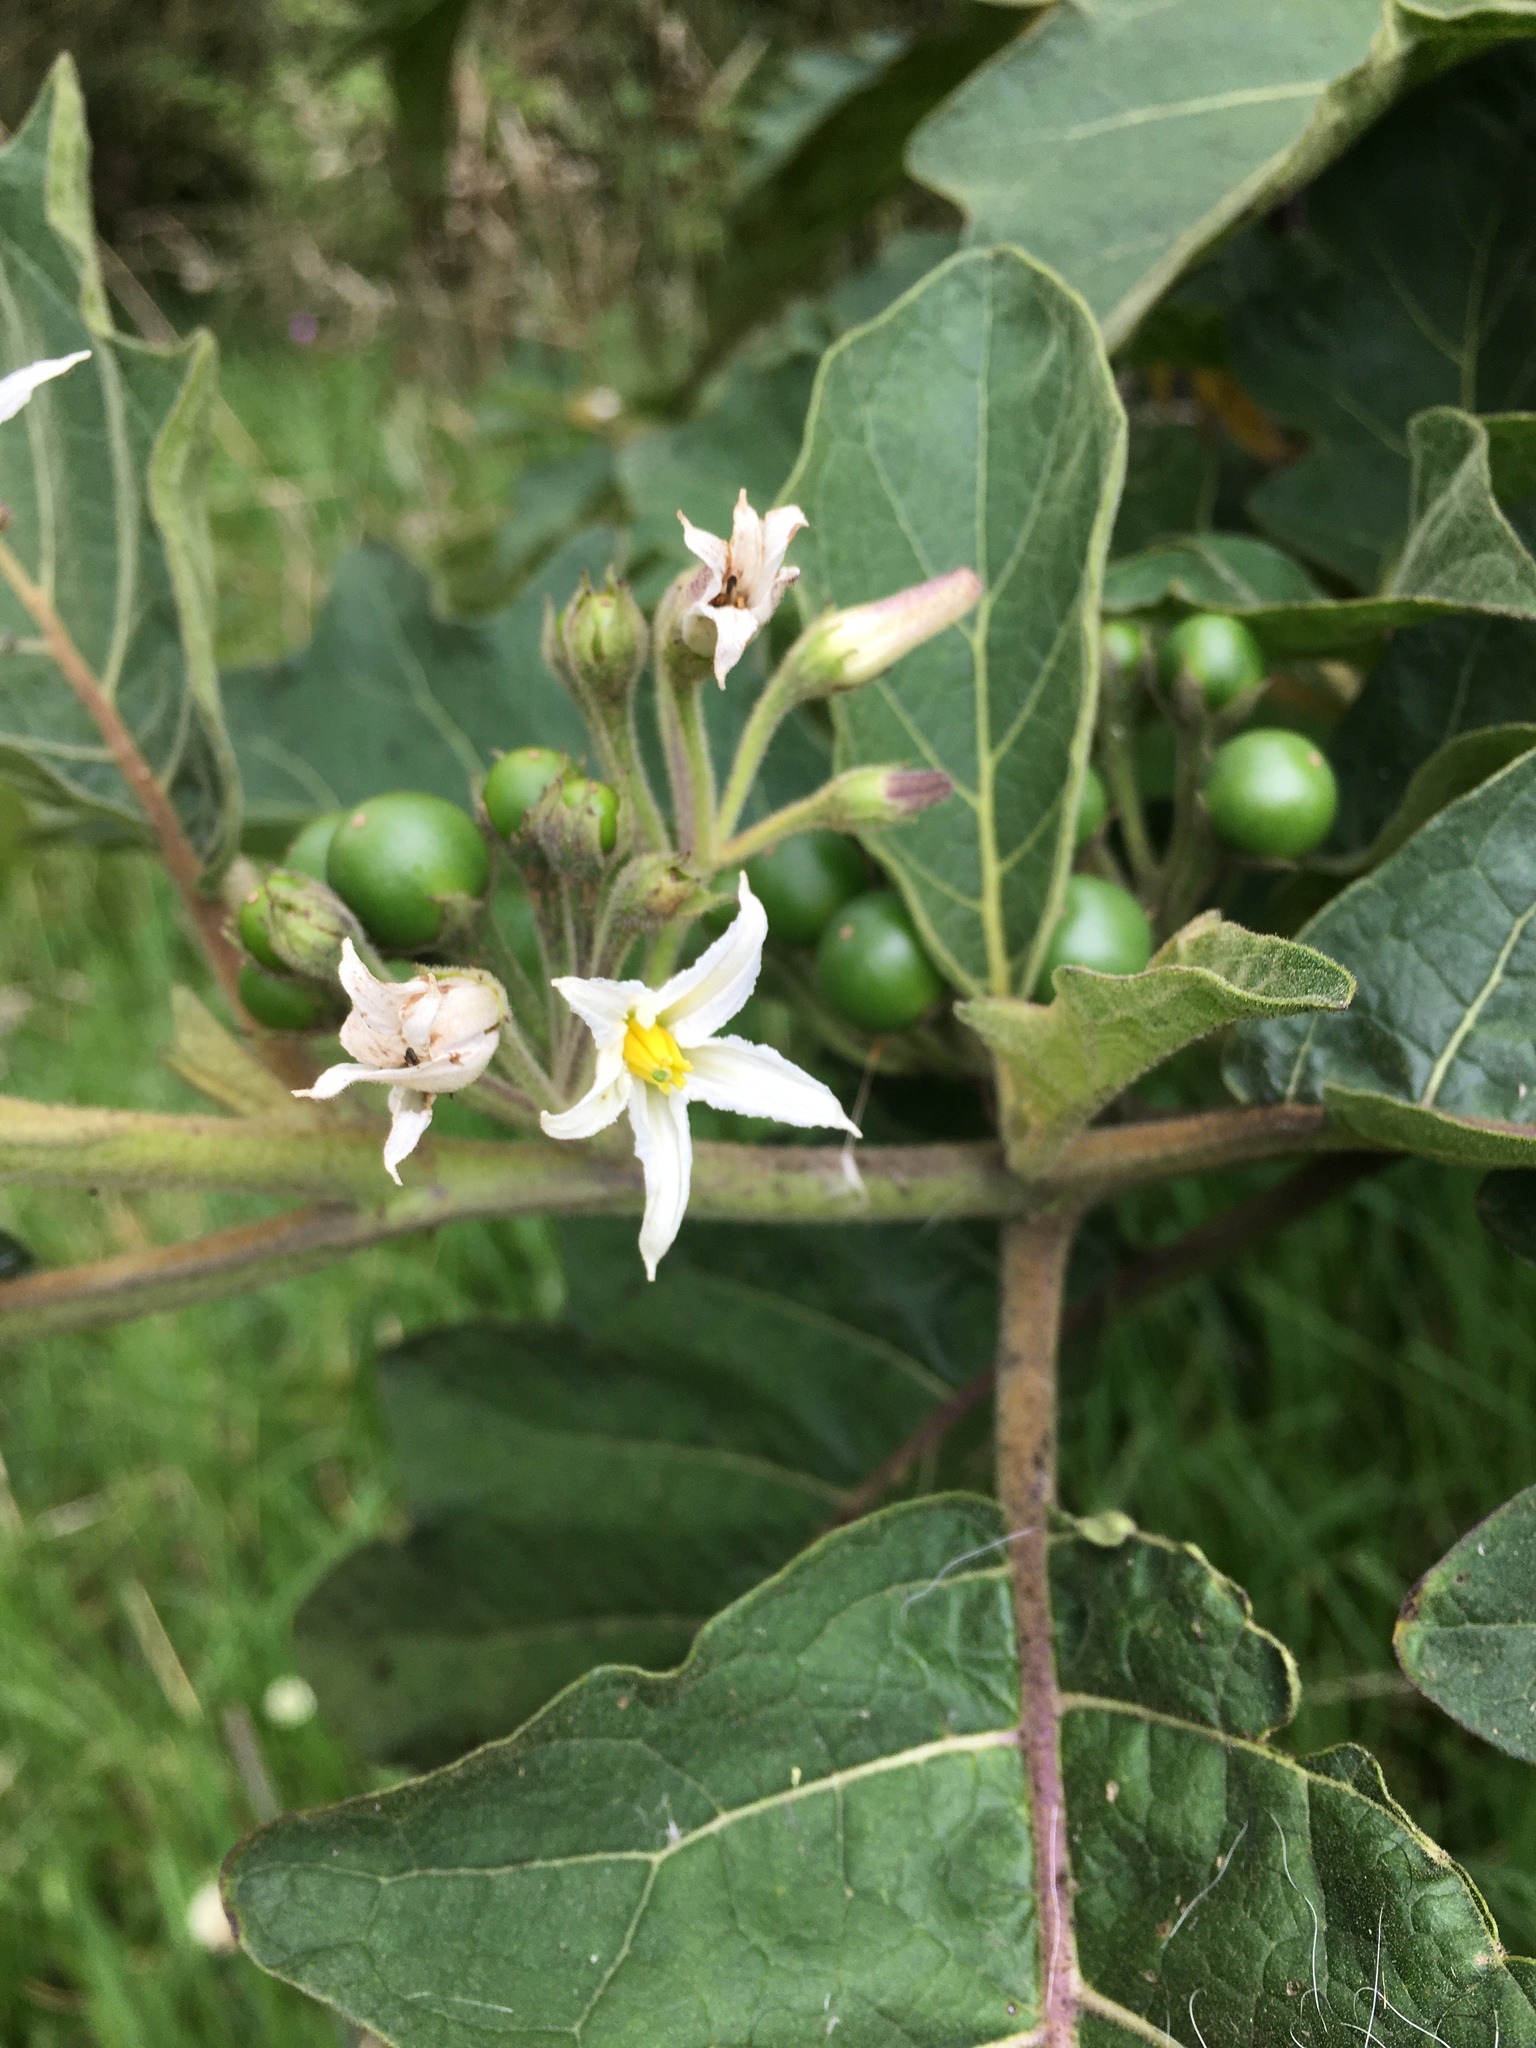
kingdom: Plantae
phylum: Tracheophyta
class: Magnoliopsida
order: Solanales
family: Solanaceae
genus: Solanum
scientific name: Solanum stellatiglandulosum
